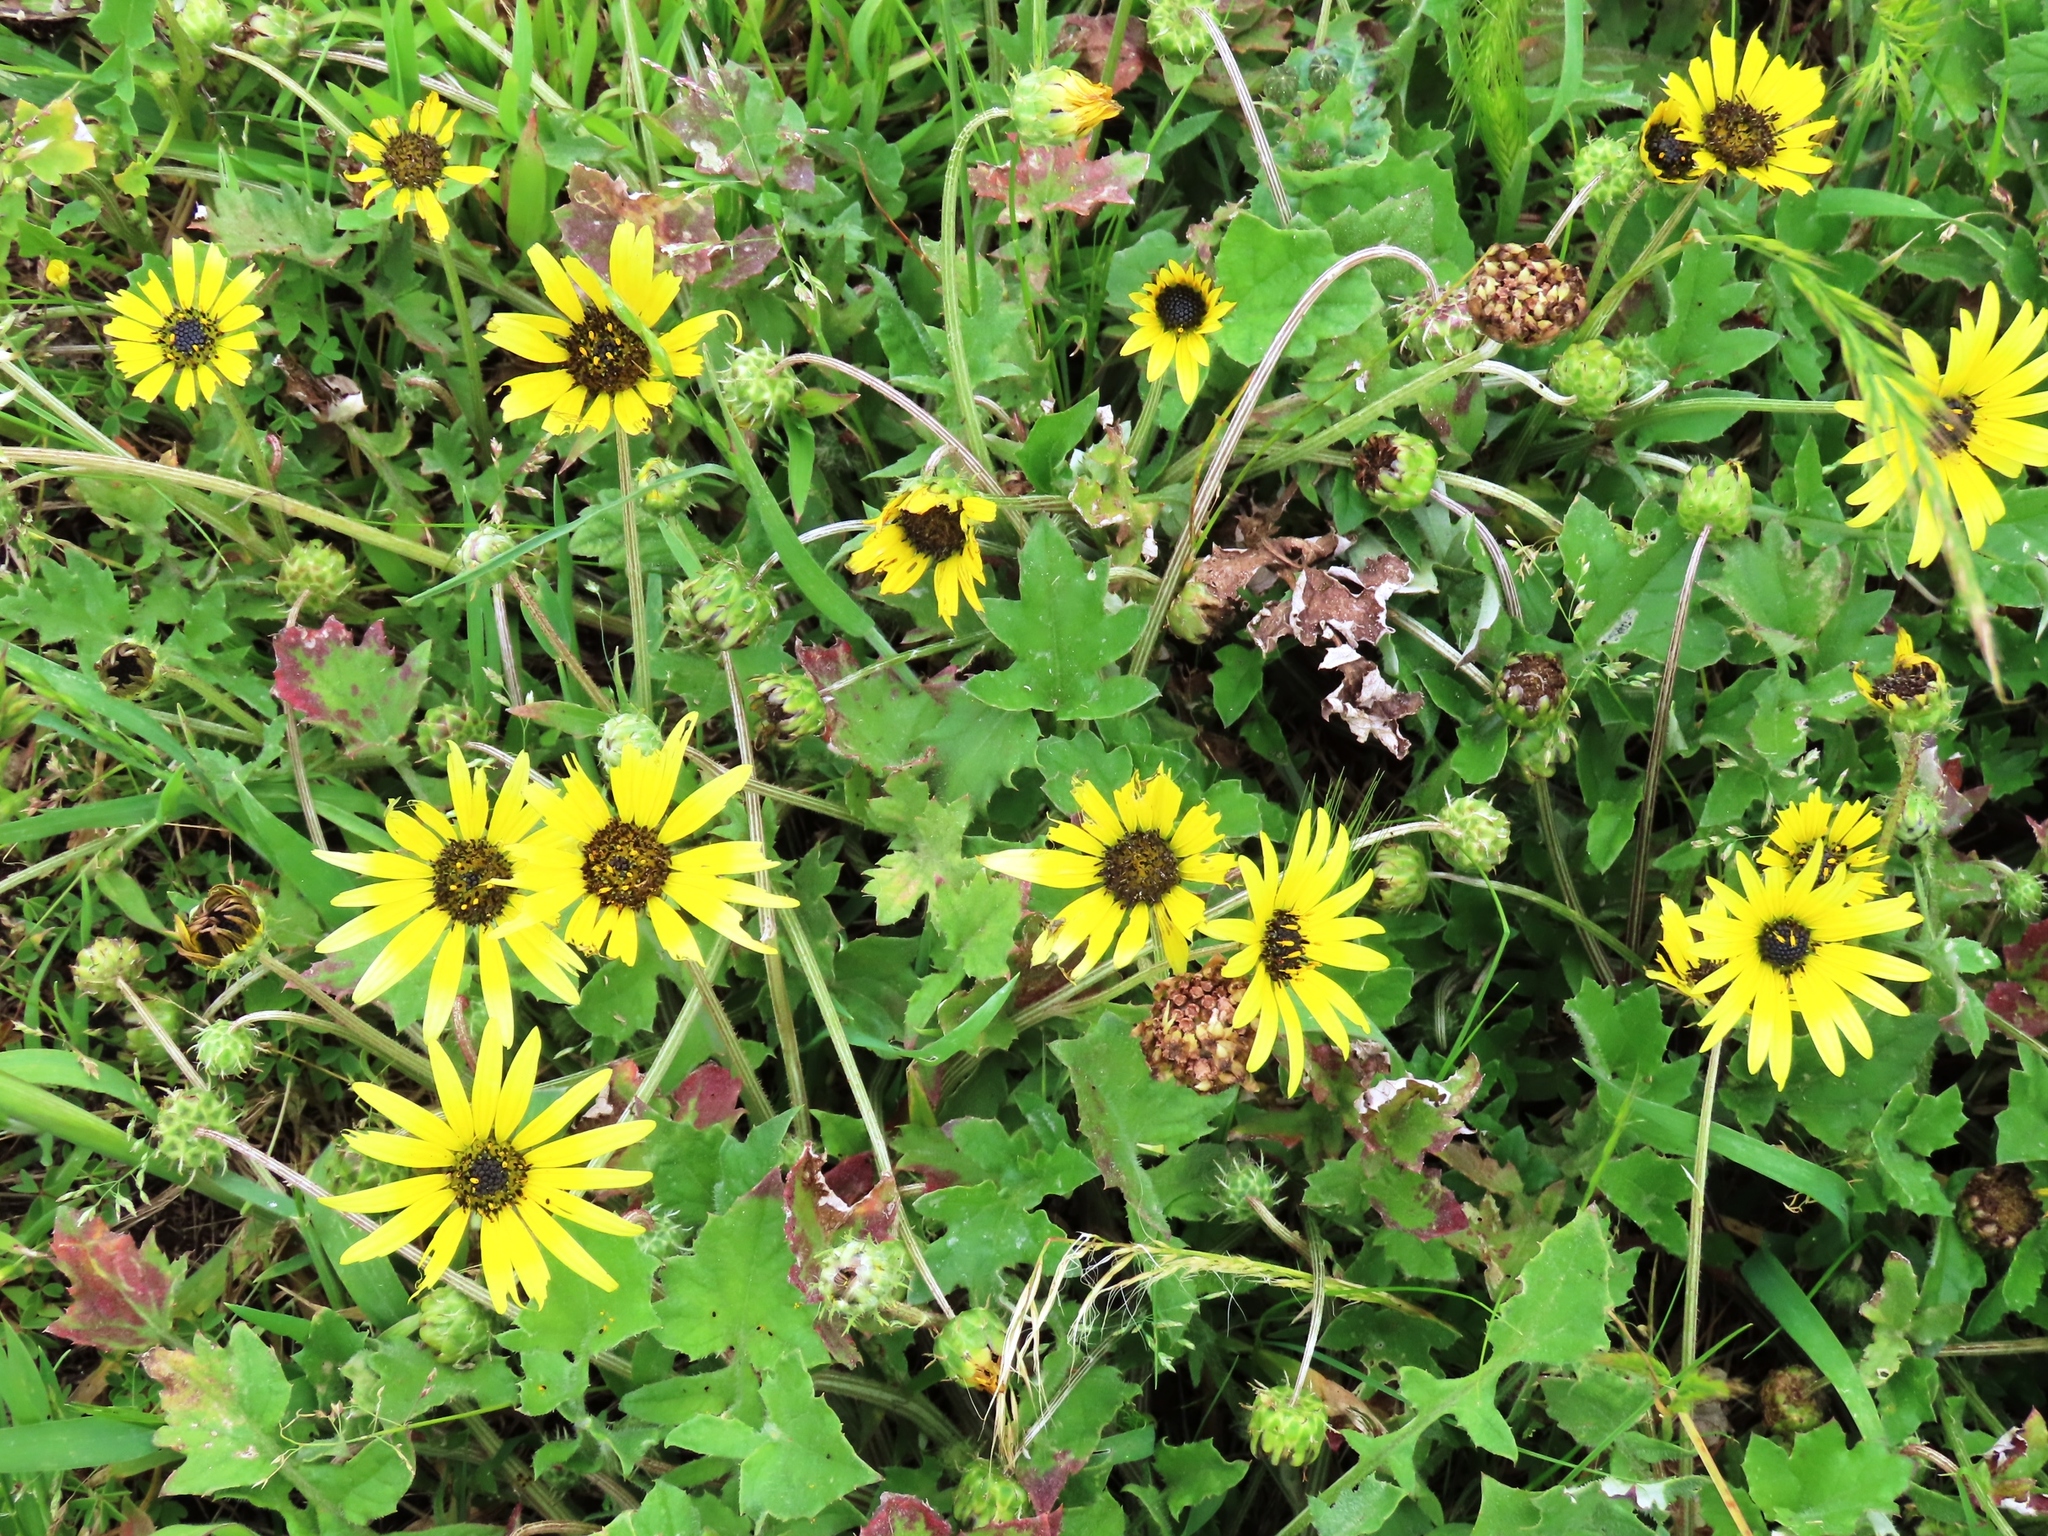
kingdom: Plantae
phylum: Tracheophyta
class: Magnoliopsida
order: Asterales
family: Asteraceae
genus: Arctotheca
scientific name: Arctotheca calendula
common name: Capeweed
